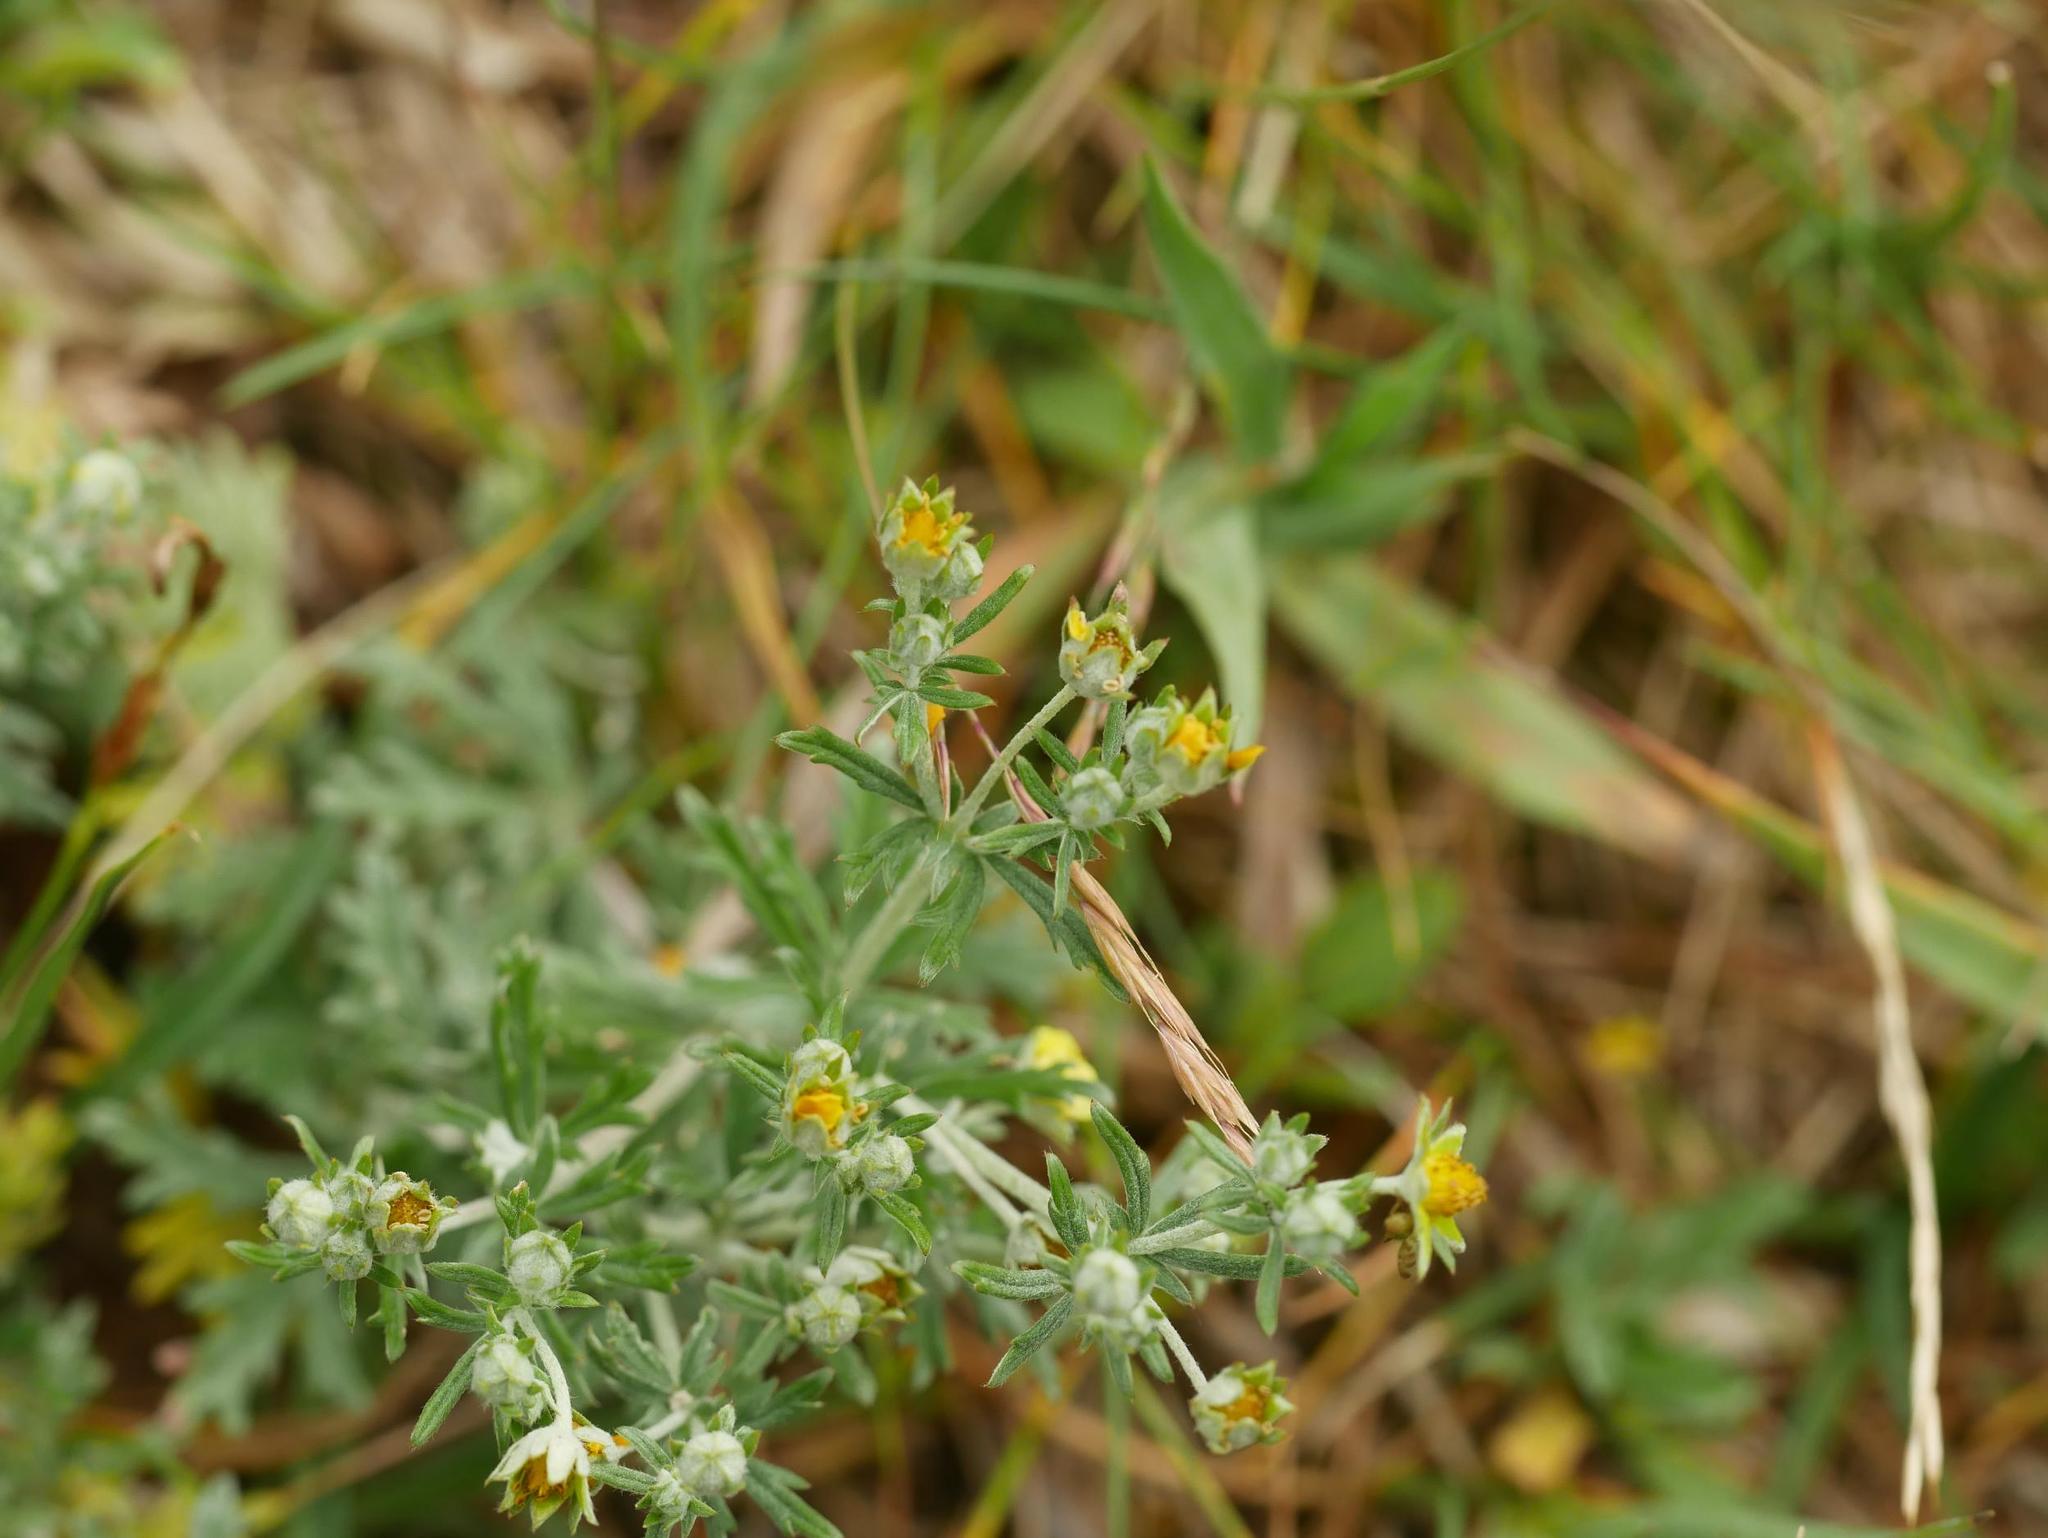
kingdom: Plantae
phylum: Tracheophyta
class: Magnoliopsida
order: Rosales
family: Rosaceae
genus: Potentilla
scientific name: Potentilla argentea
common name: Hoary cinquefoil
